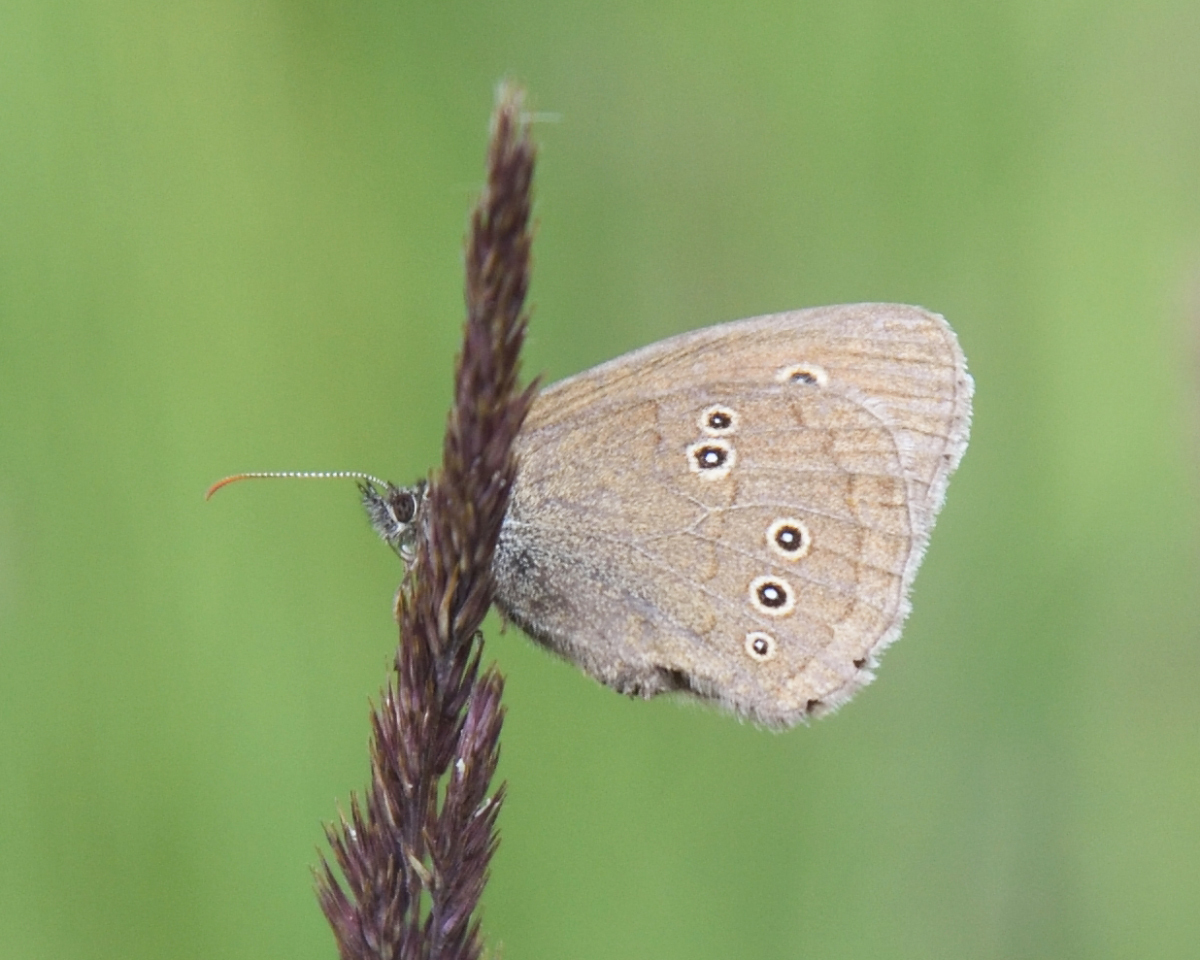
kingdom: Animalia
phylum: Arthropoda
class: Insecta
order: Lepidoptera
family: Nymphalidae
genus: Aphantopus
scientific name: Aphantopus hyperantus
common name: Ringlet
